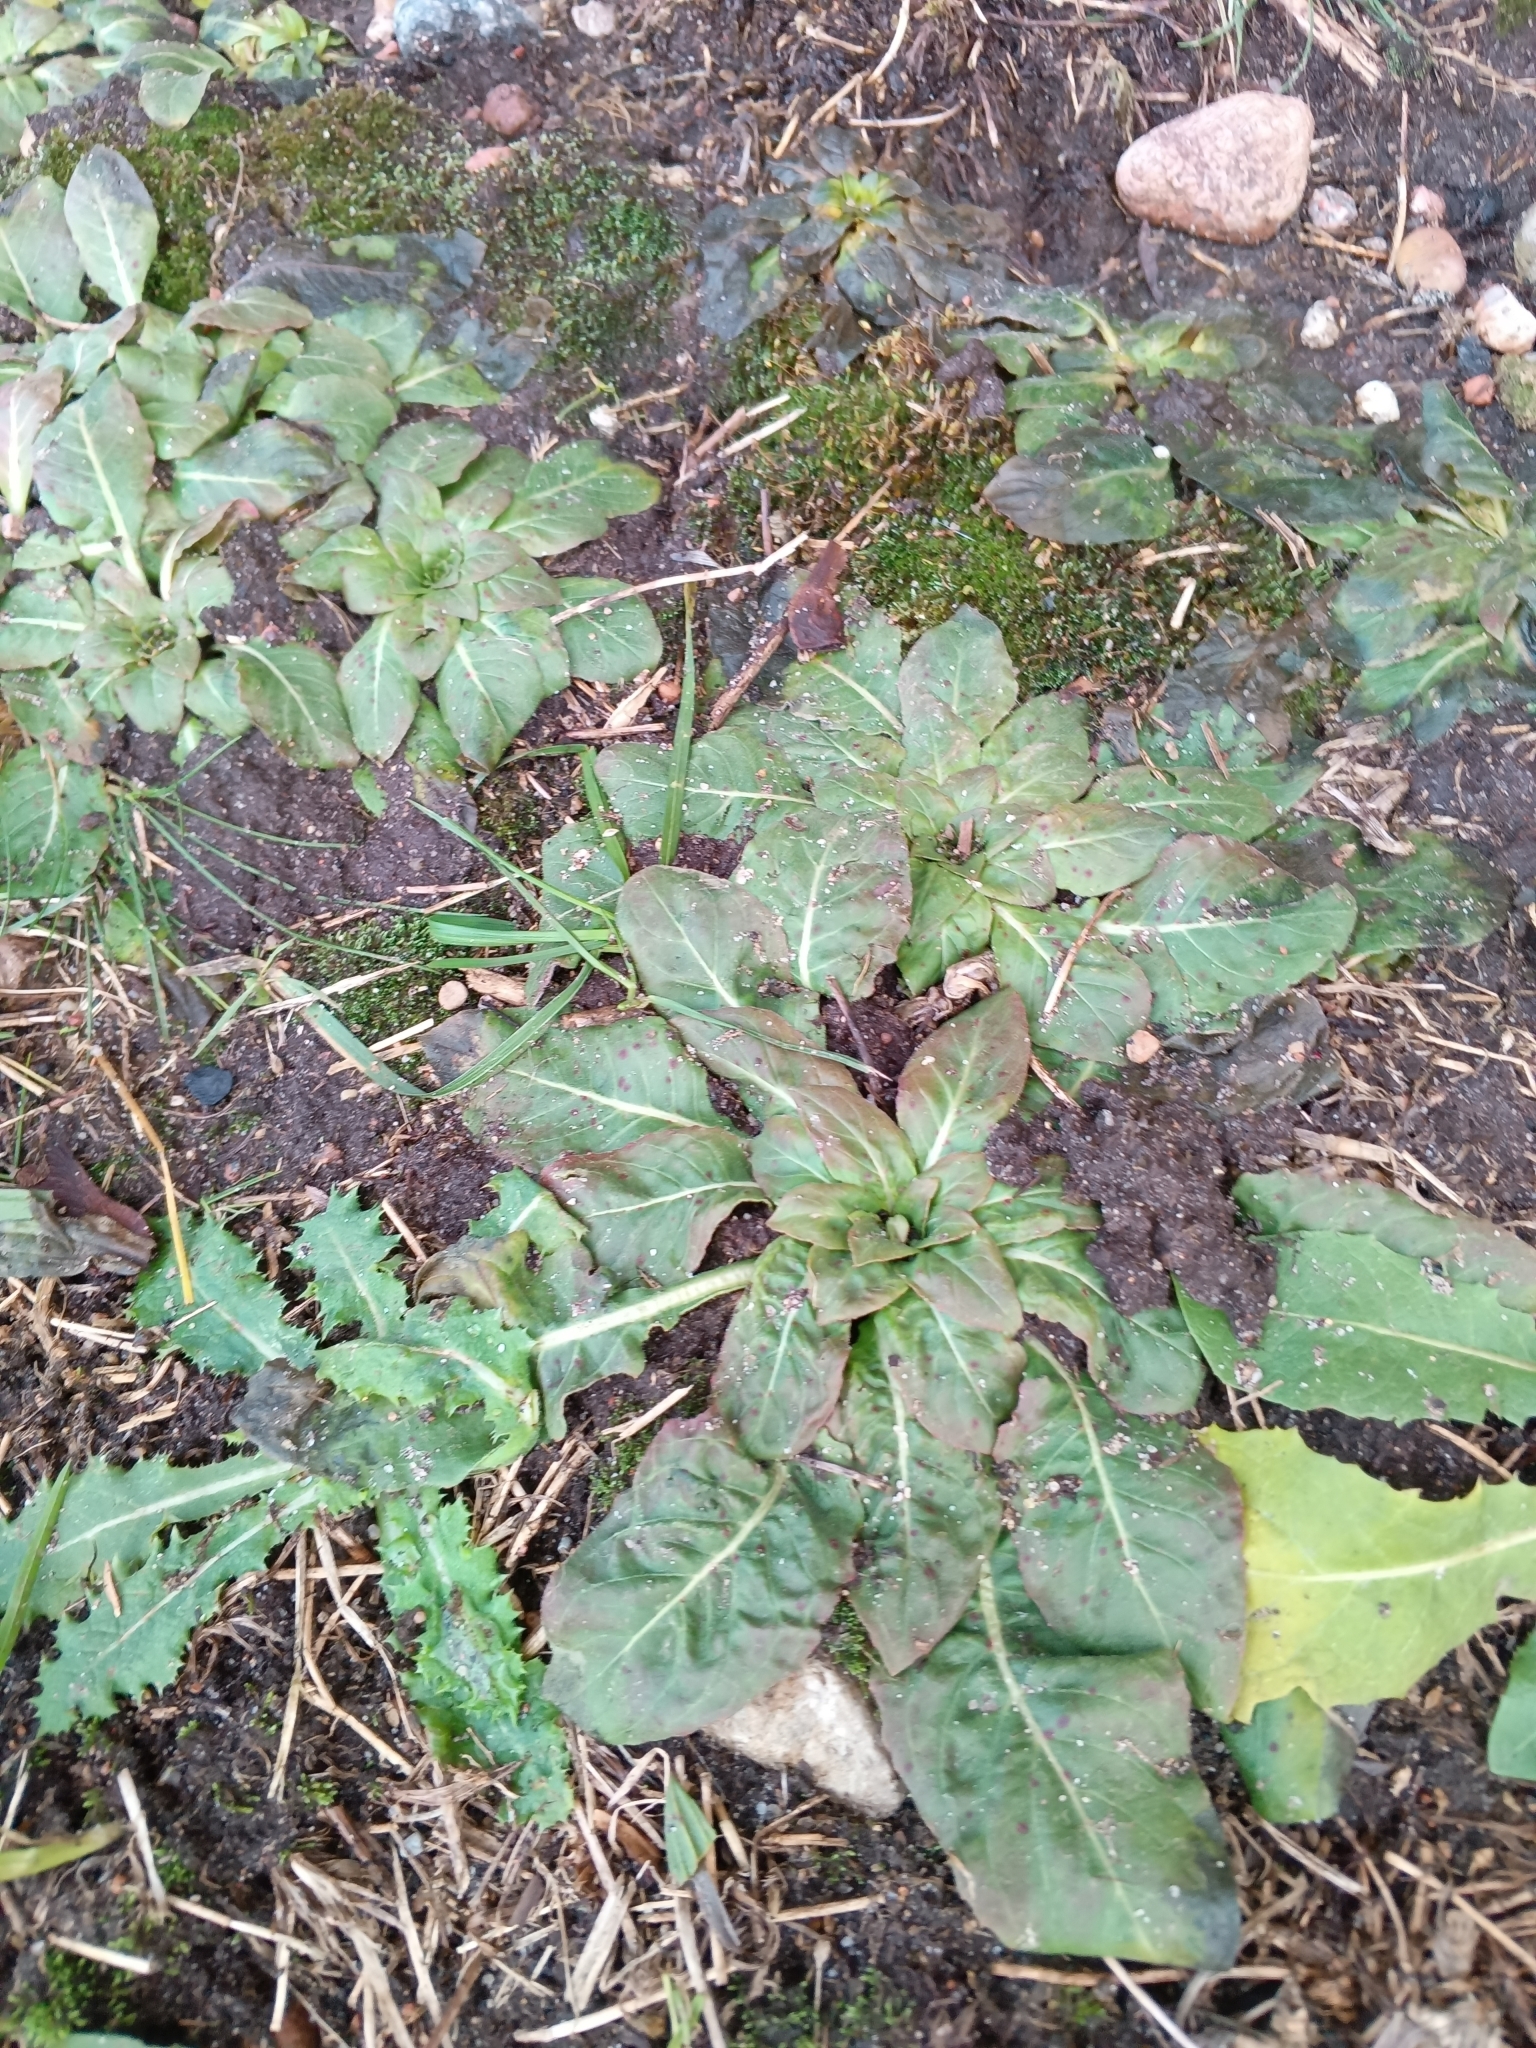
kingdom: Plantae
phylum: Tracheophyta
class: Magnoliopsida
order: Myrtales
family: Onagraceae
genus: Oenothera
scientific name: Oenothera
